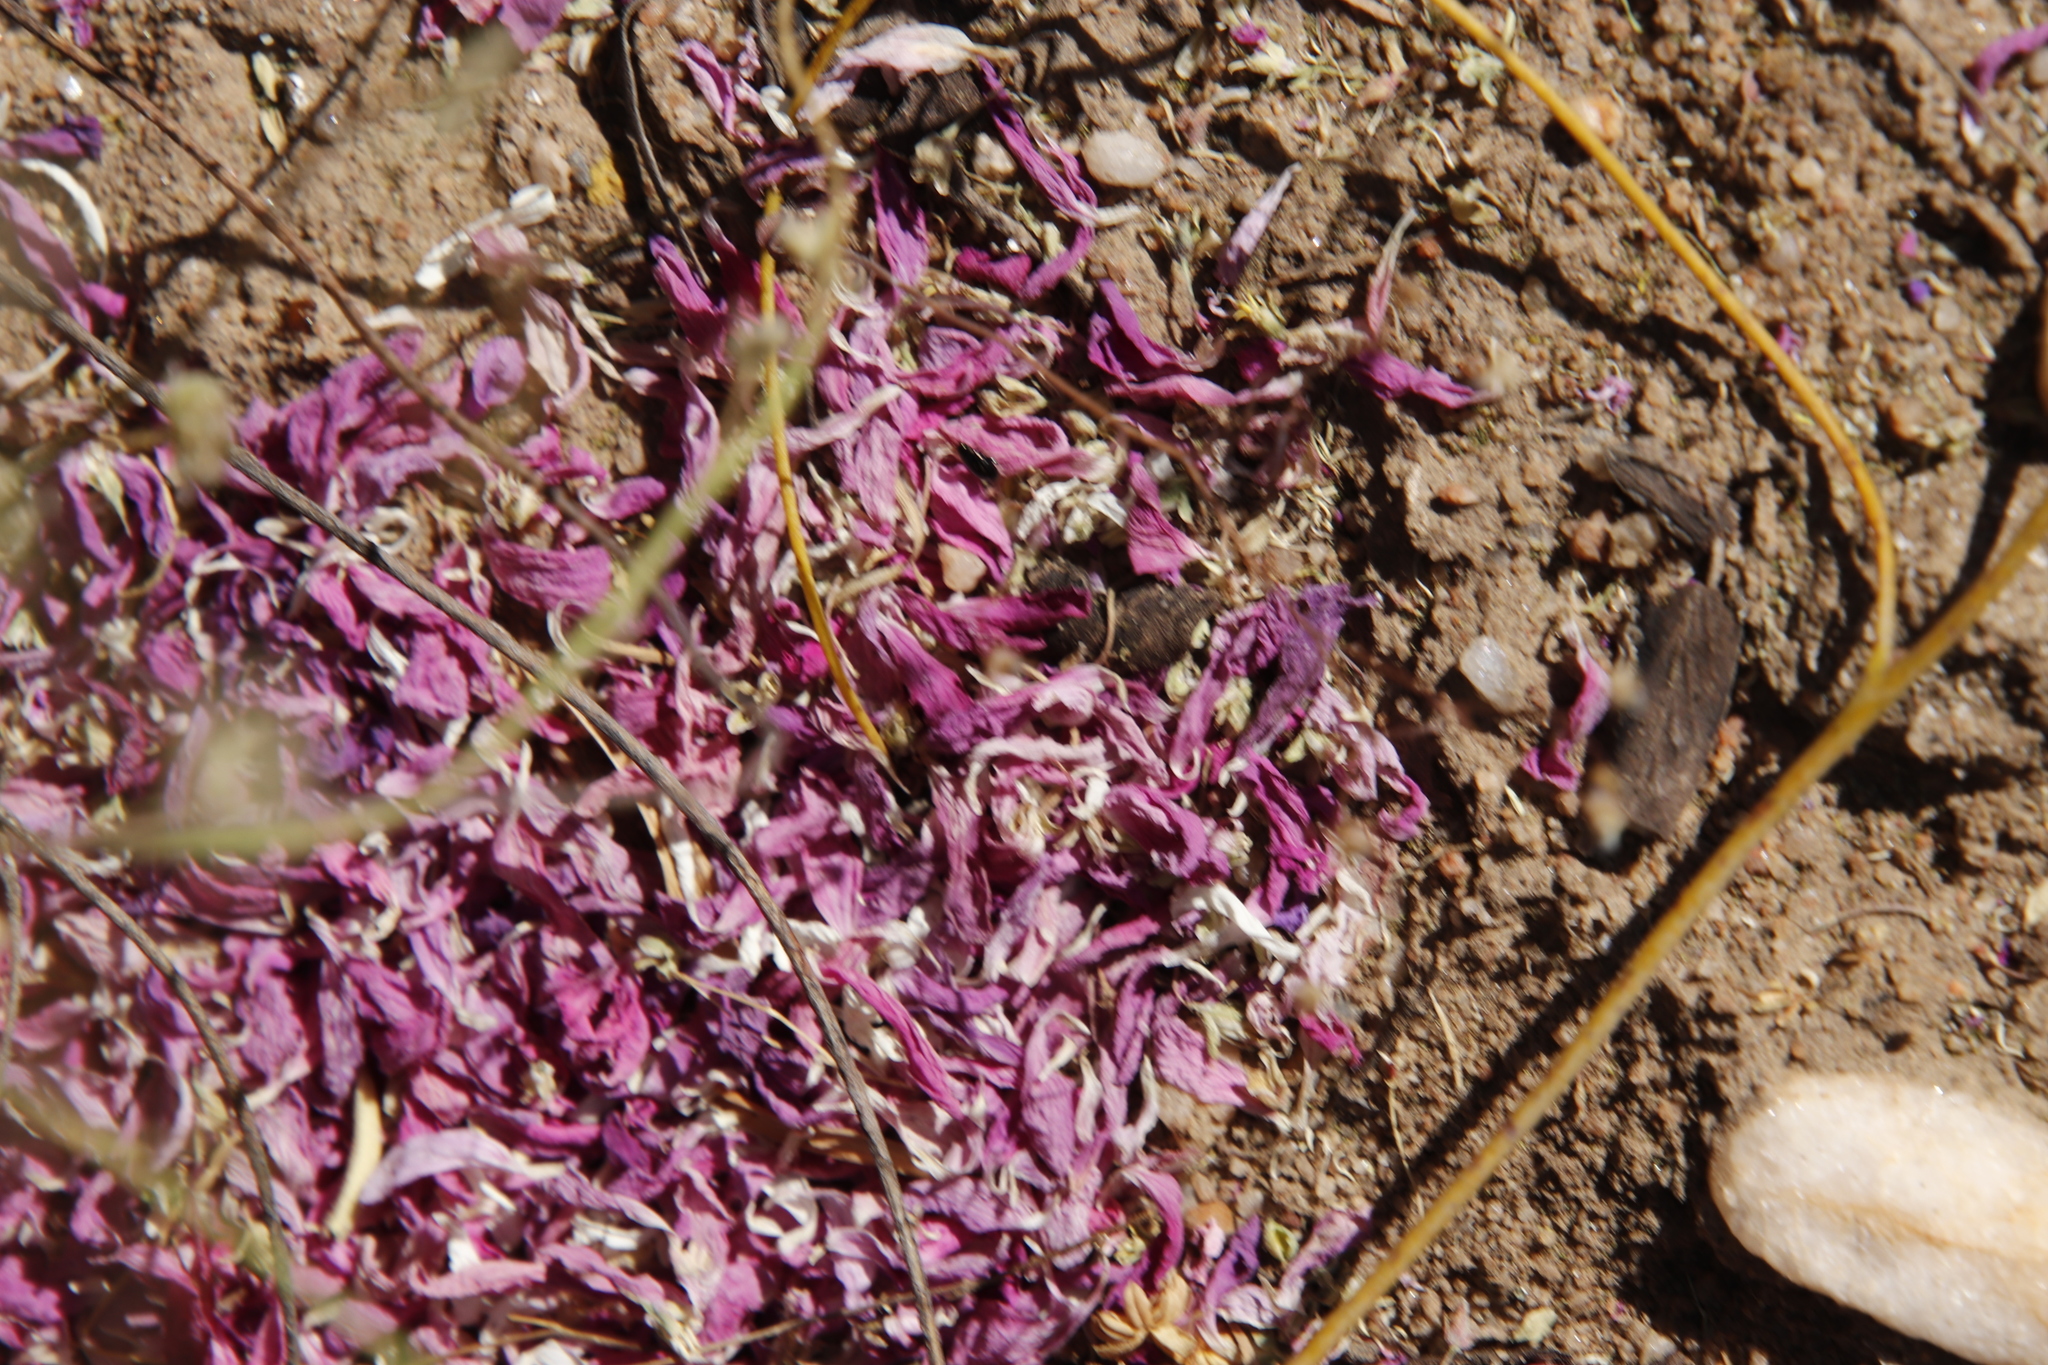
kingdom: Plantae
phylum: Tracheophyta
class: Magnoliopsida
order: Fabales
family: Polygalaceae
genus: Muraltia
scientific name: Muraltia spinosa
